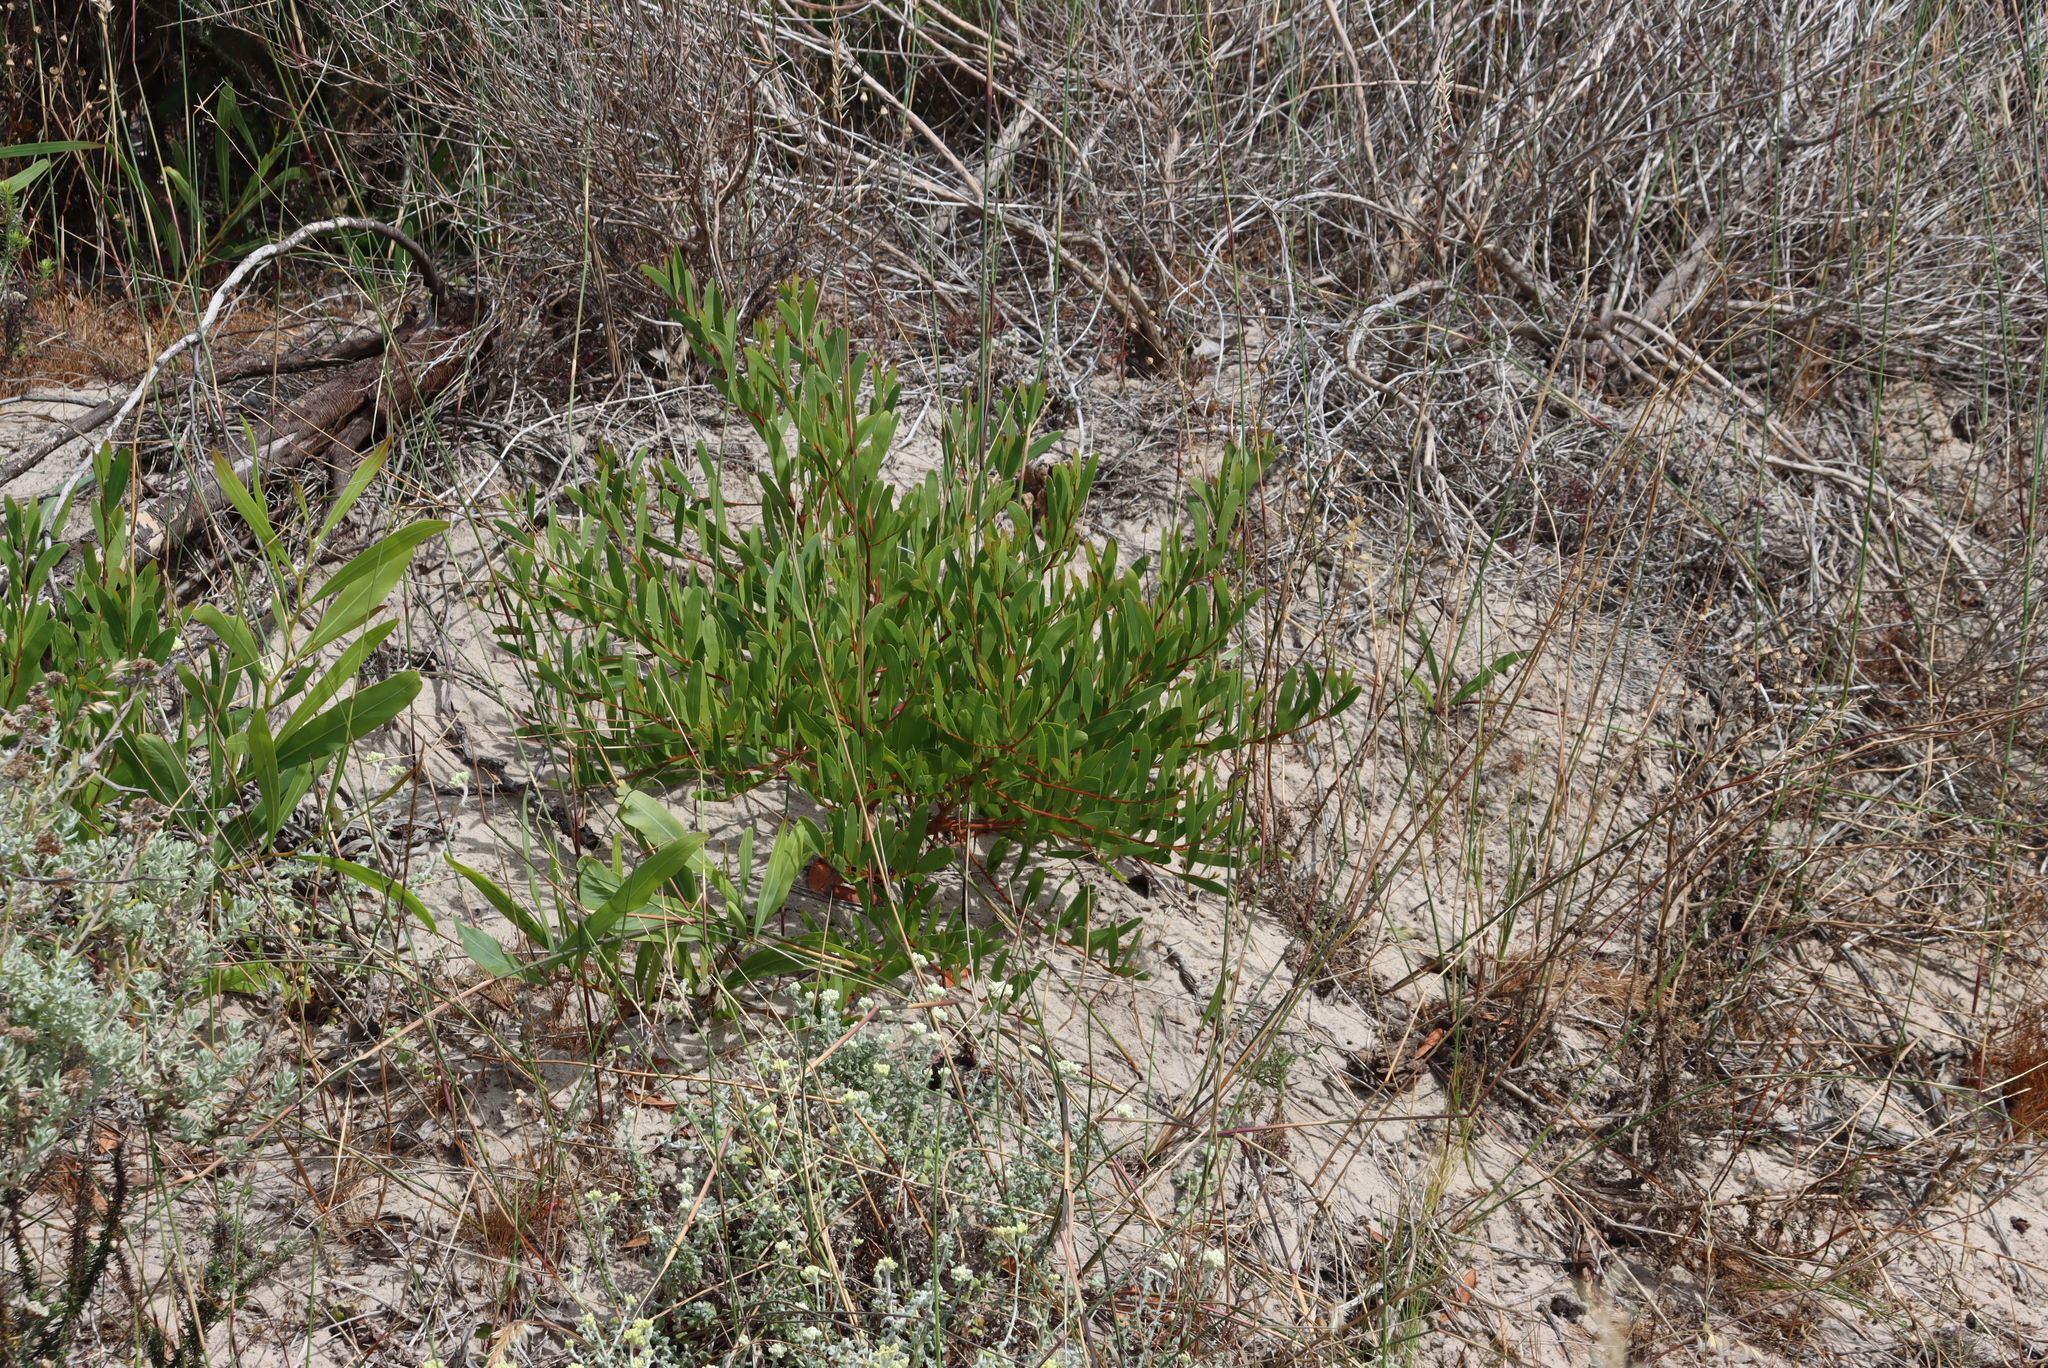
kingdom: Plantae
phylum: Tracheophyta
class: Magnoliopsida
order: Fabales
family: Fabaceae
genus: Acacia
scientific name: Acacia cyclops
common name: Coastal wattle
